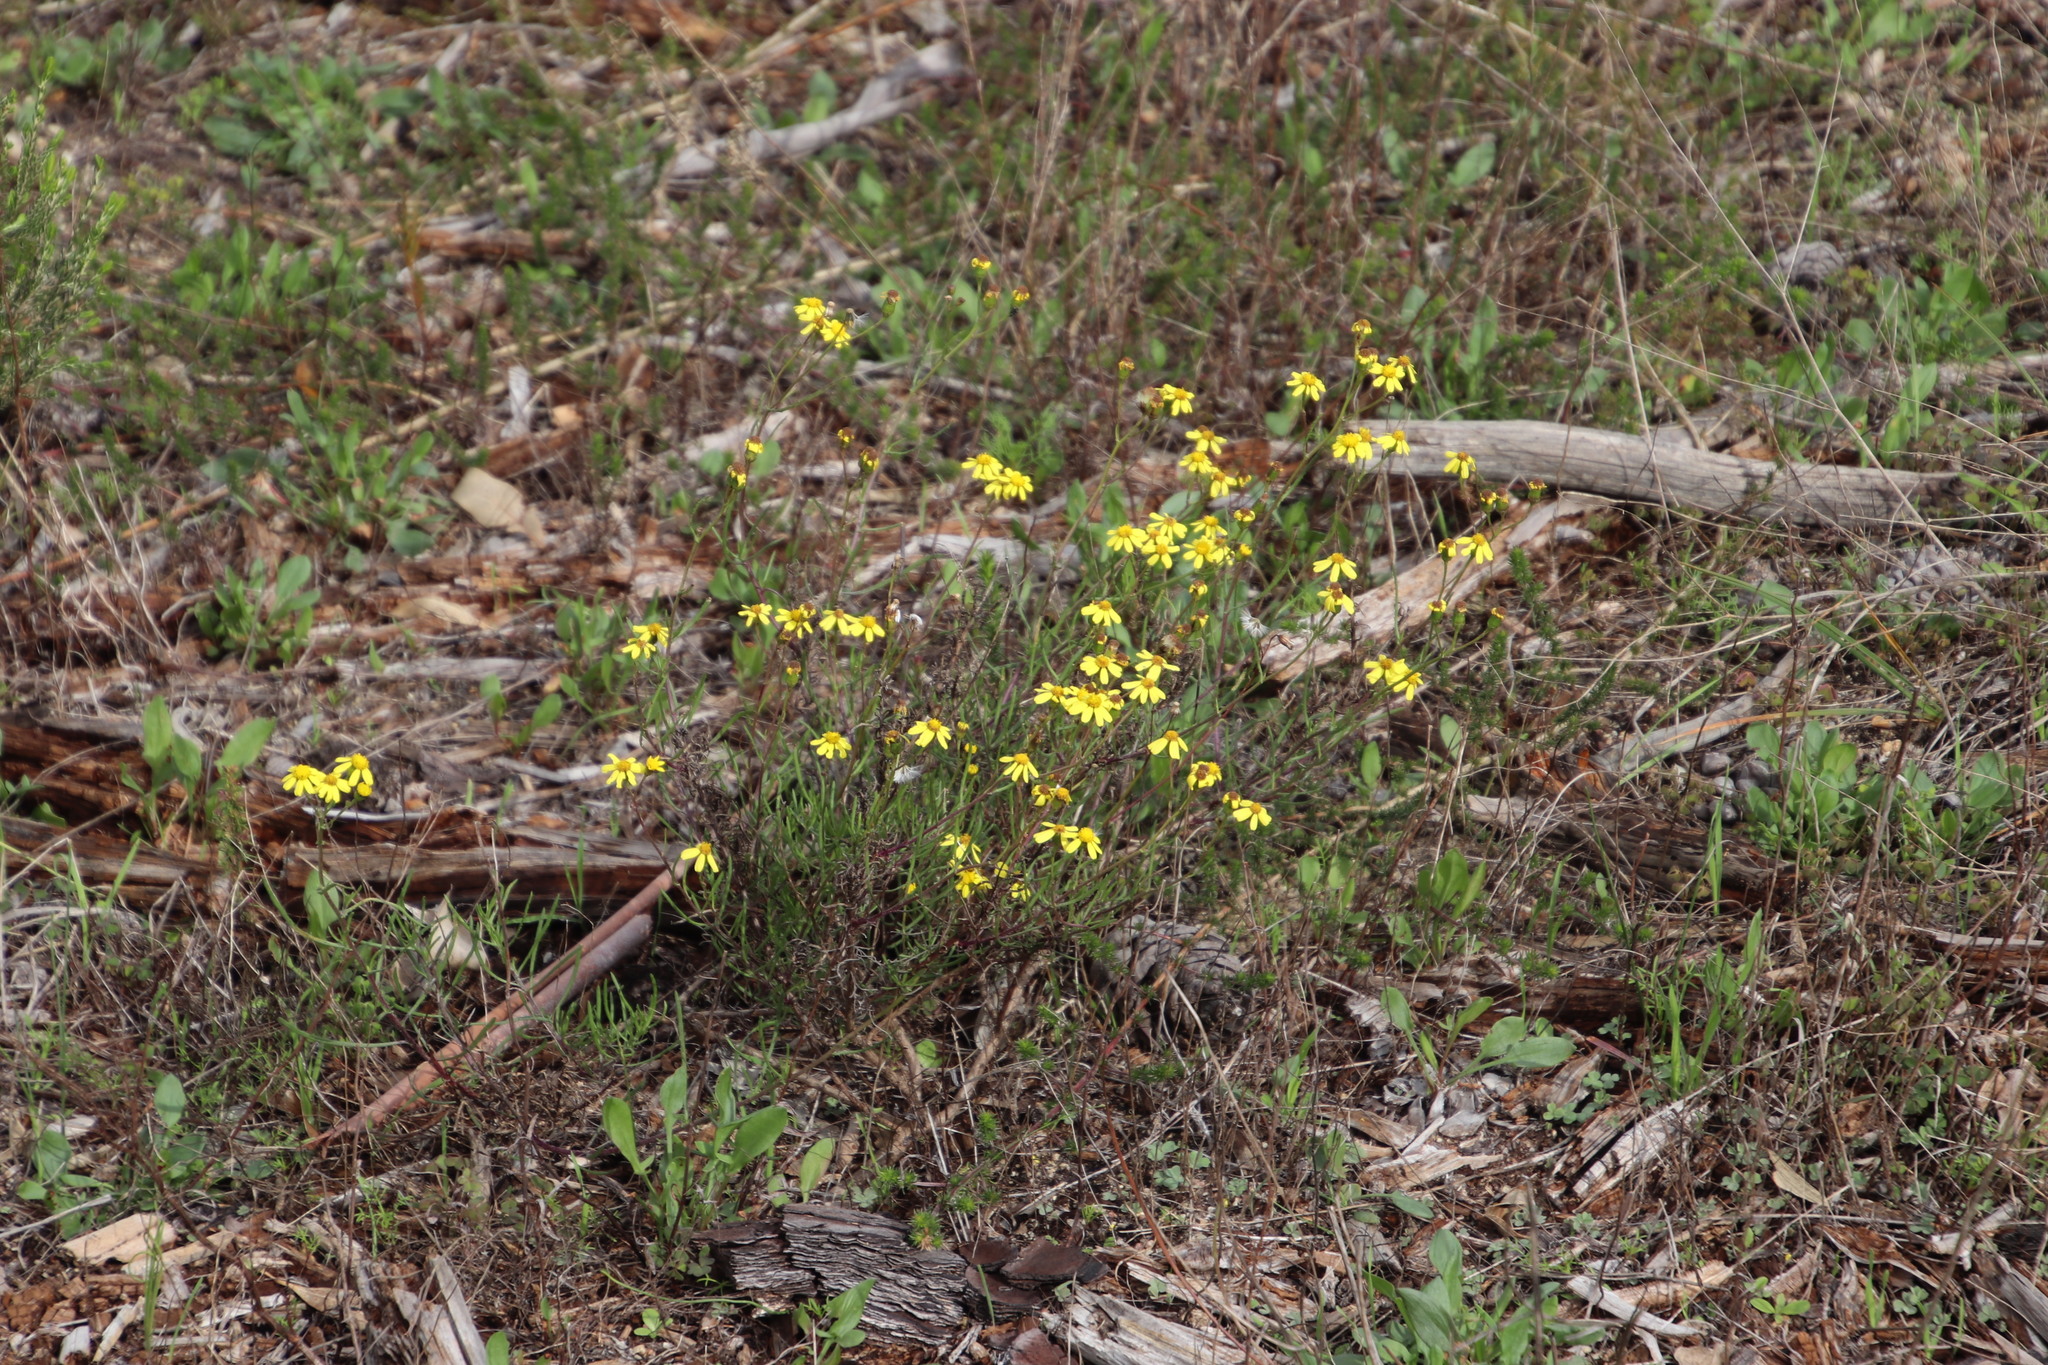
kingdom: Plantae
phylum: Tracheophyta
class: Magnoliopsida
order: Asterales
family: Asteraceae
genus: Senecio
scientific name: Senecio burchellii
